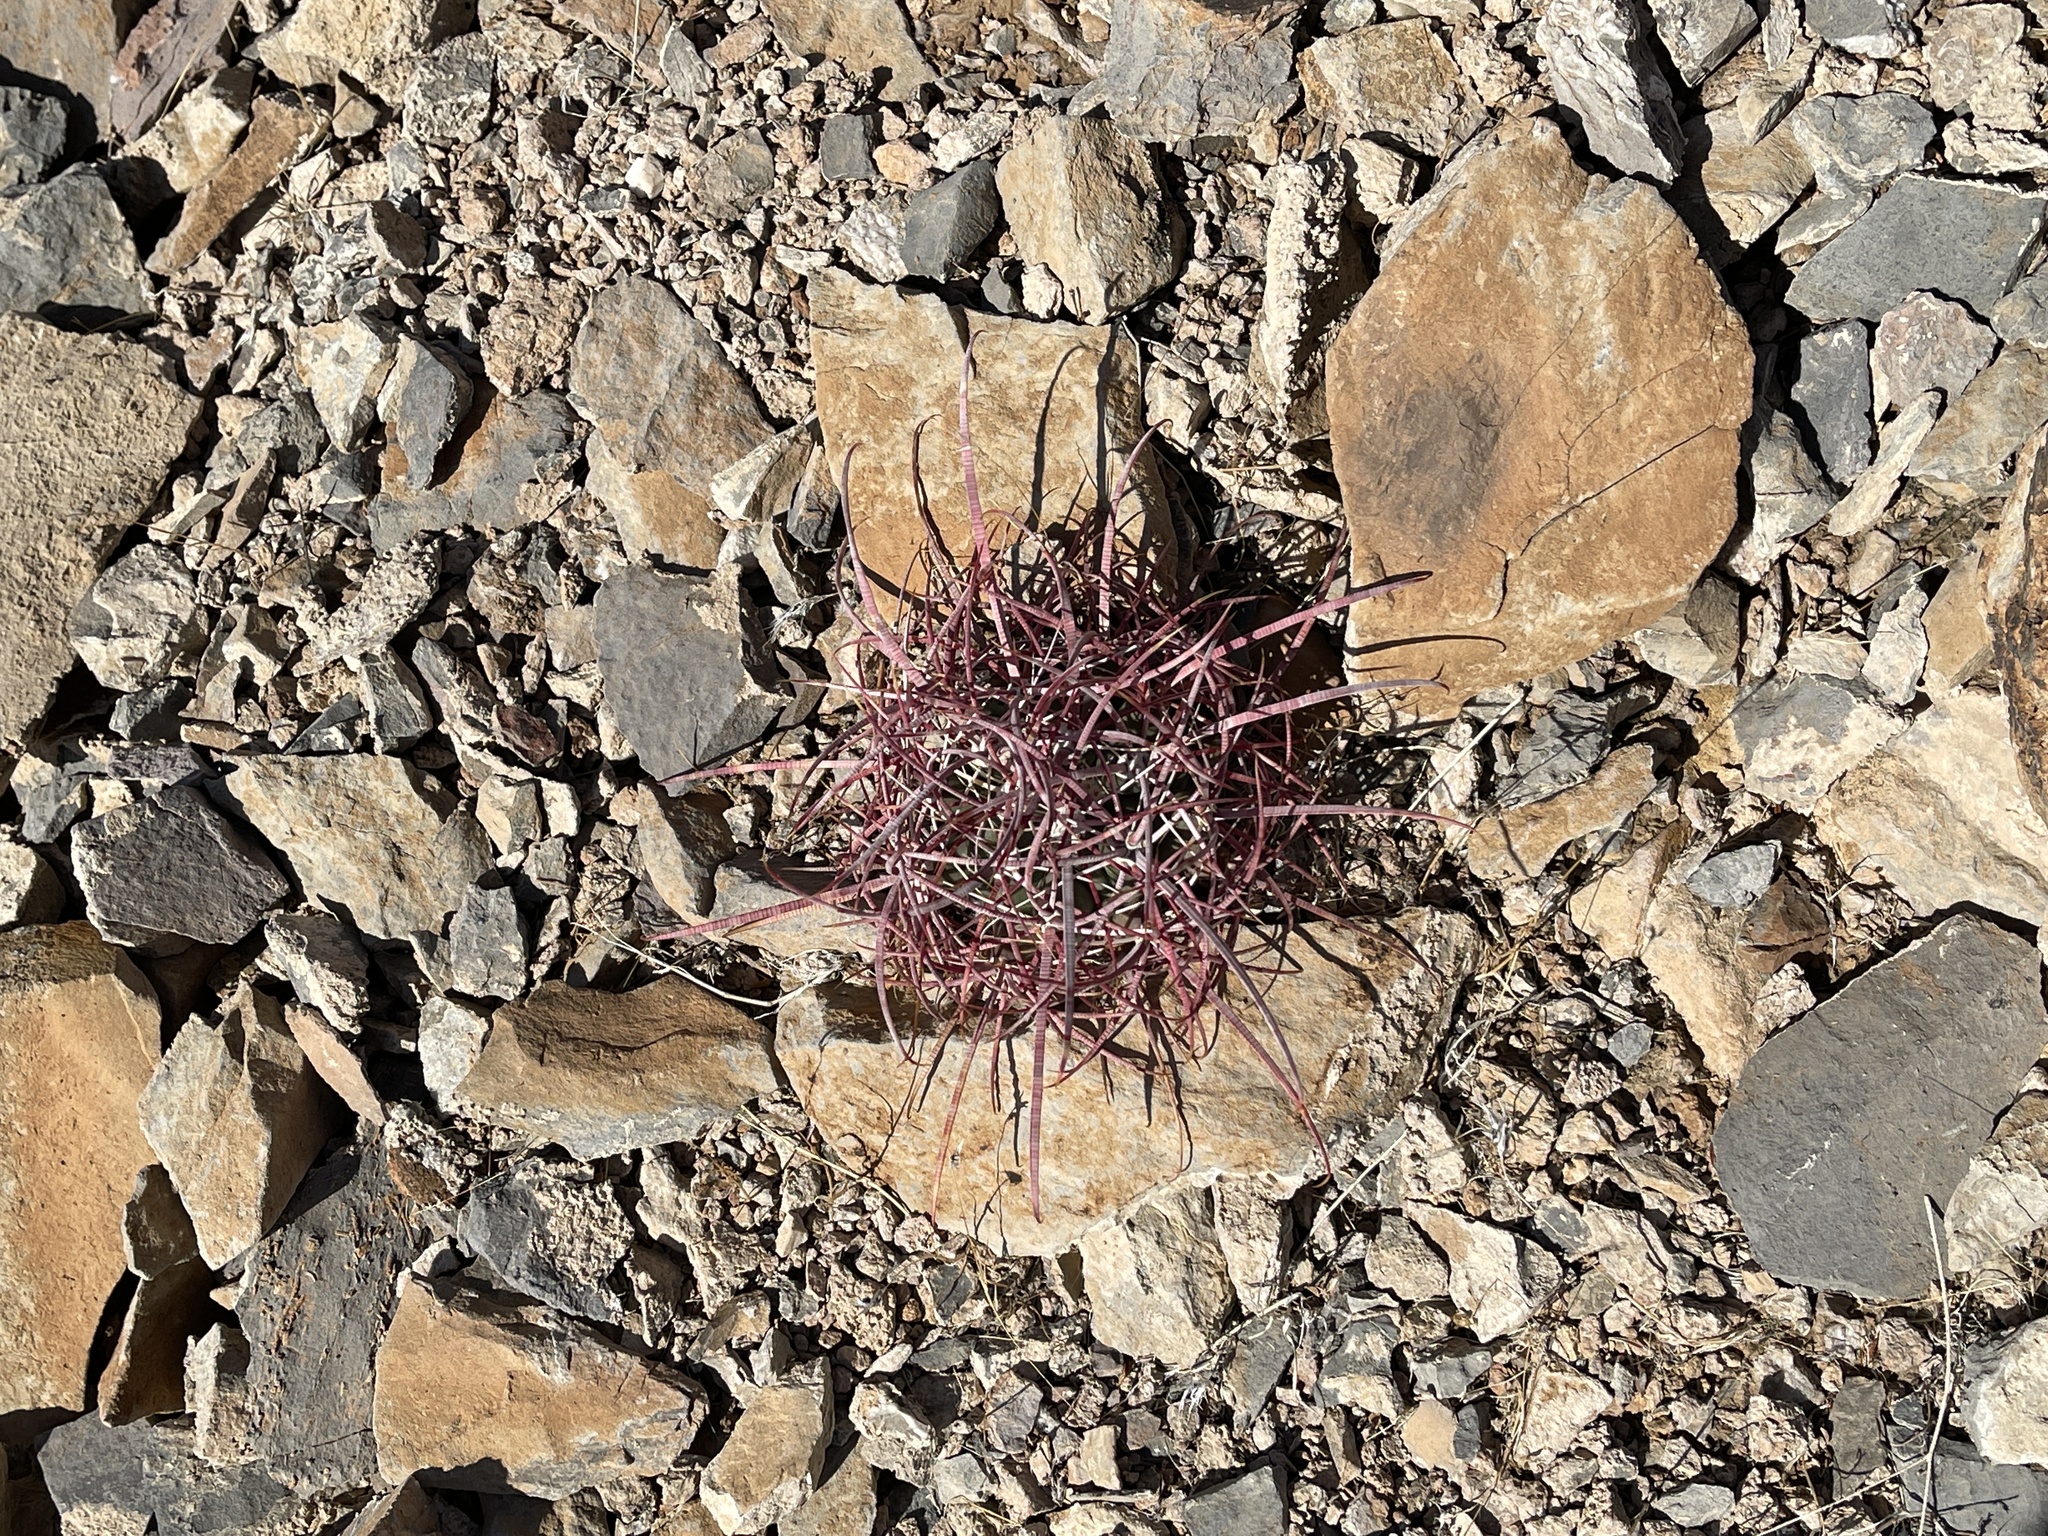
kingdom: Plantae
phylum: Tracheophyta
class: Magnoliopsida
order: Caryophyllales
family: Cactaceae
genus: Ferocactus
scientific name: Ferocactus cylindraceus
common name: California barrel cactus
